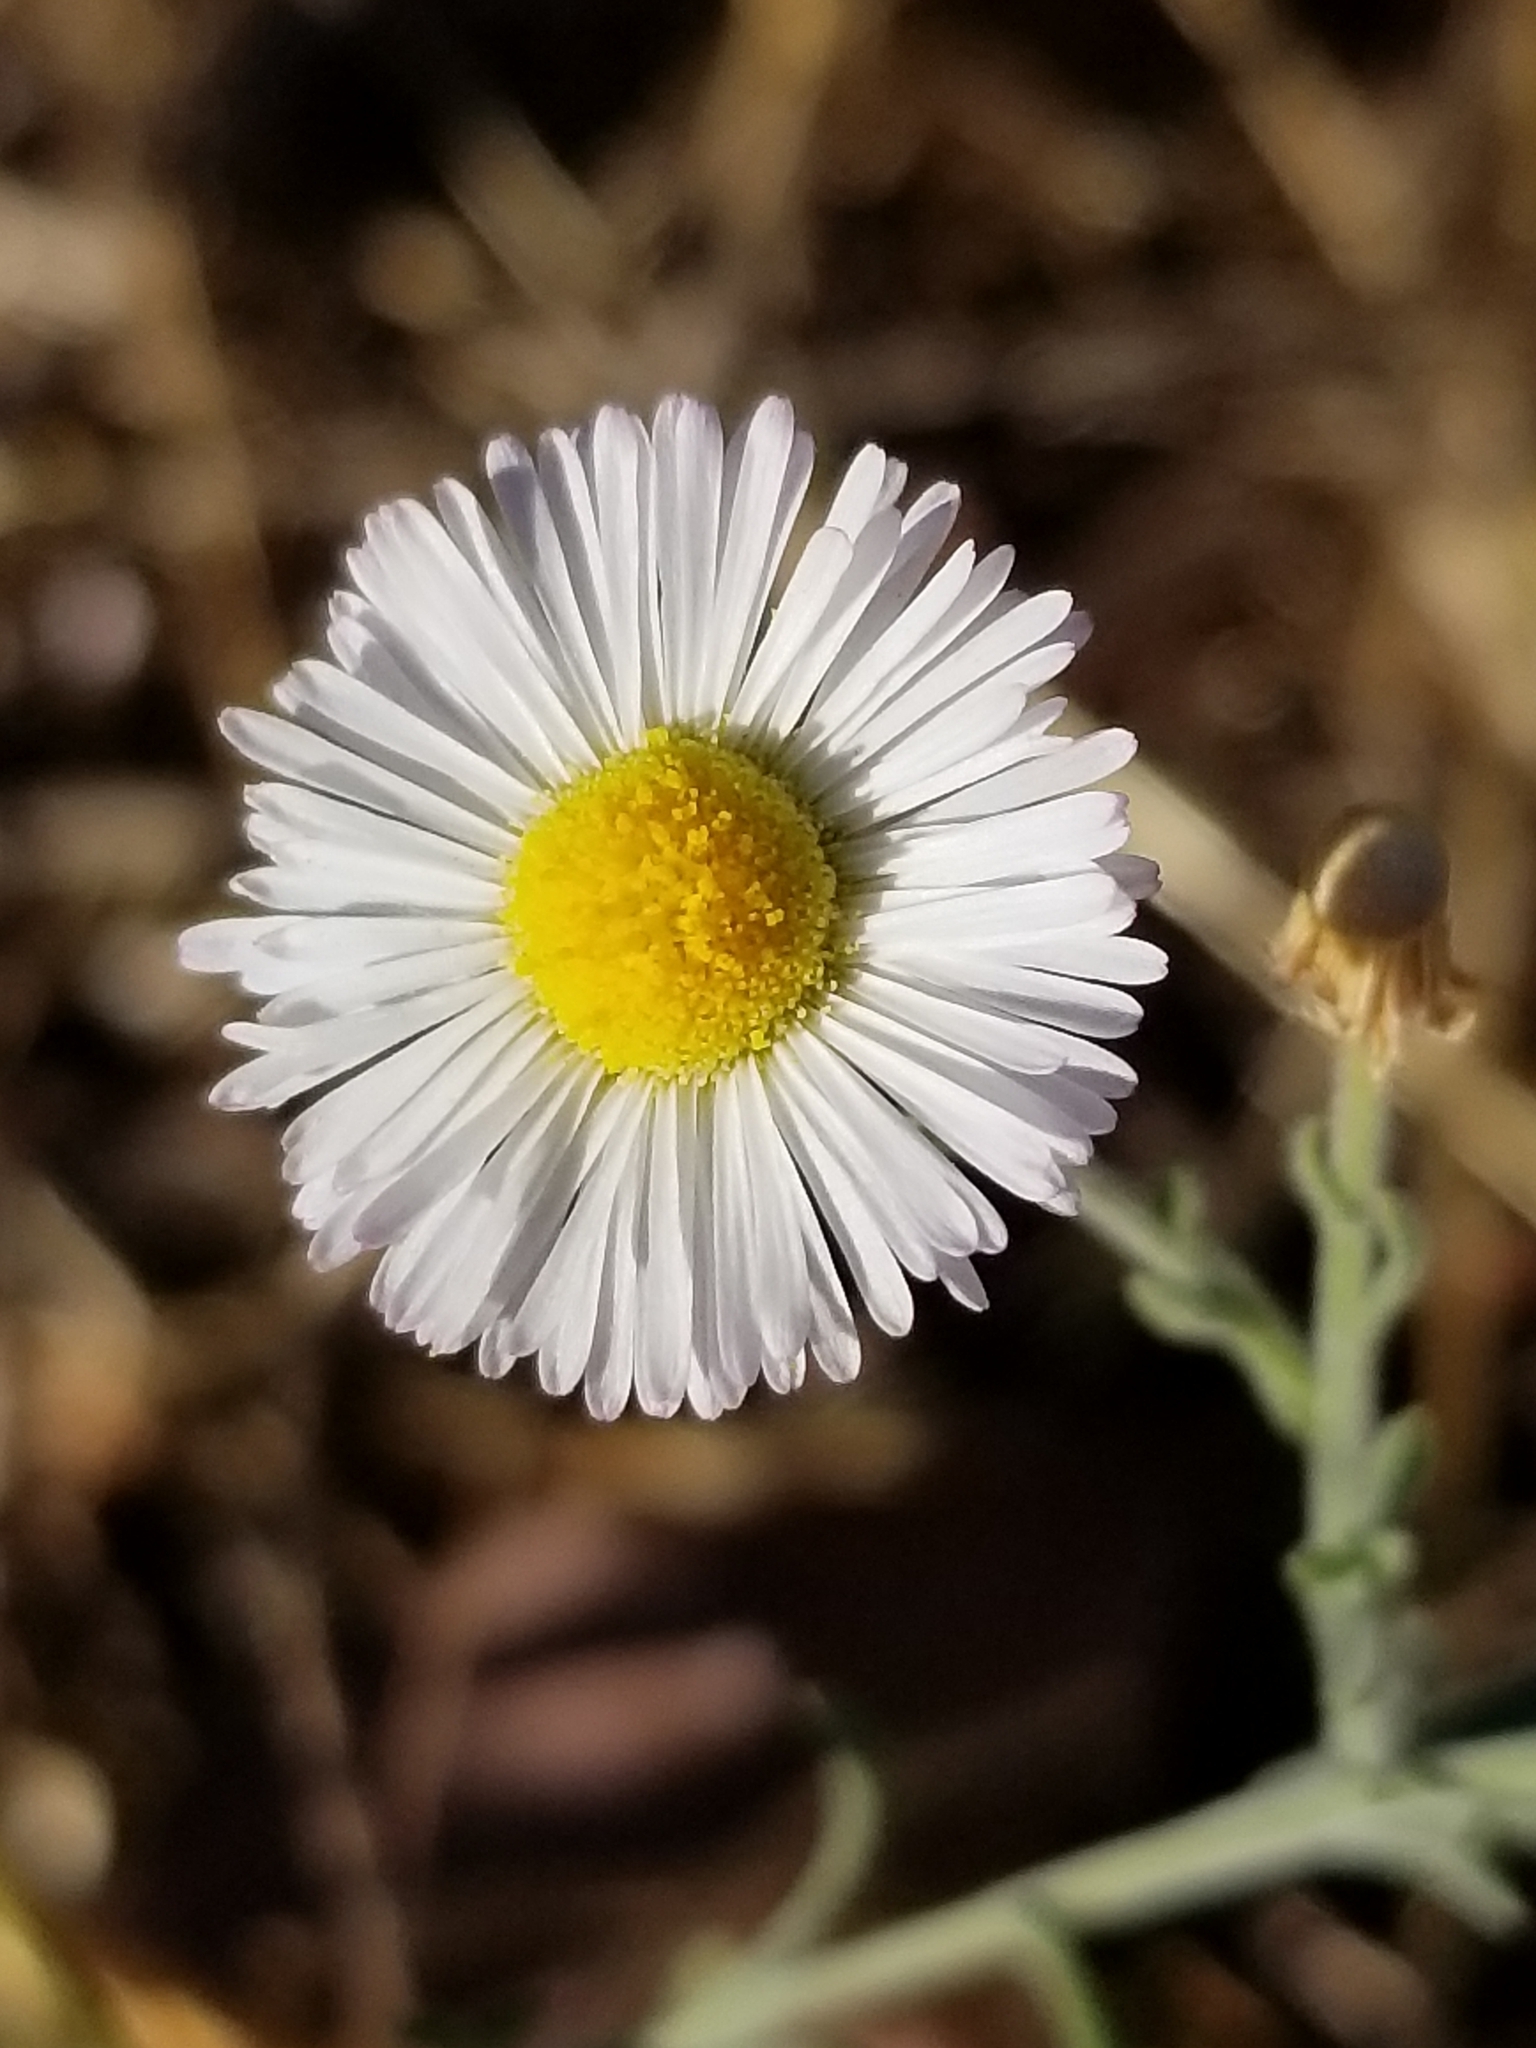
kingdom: Plantae
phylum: Tracheophyta
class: Magnoliopsida
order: Asterales
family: Asteraceae
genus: Erigeron
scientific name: Erigeron divergens
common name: Diffuse fleabane
